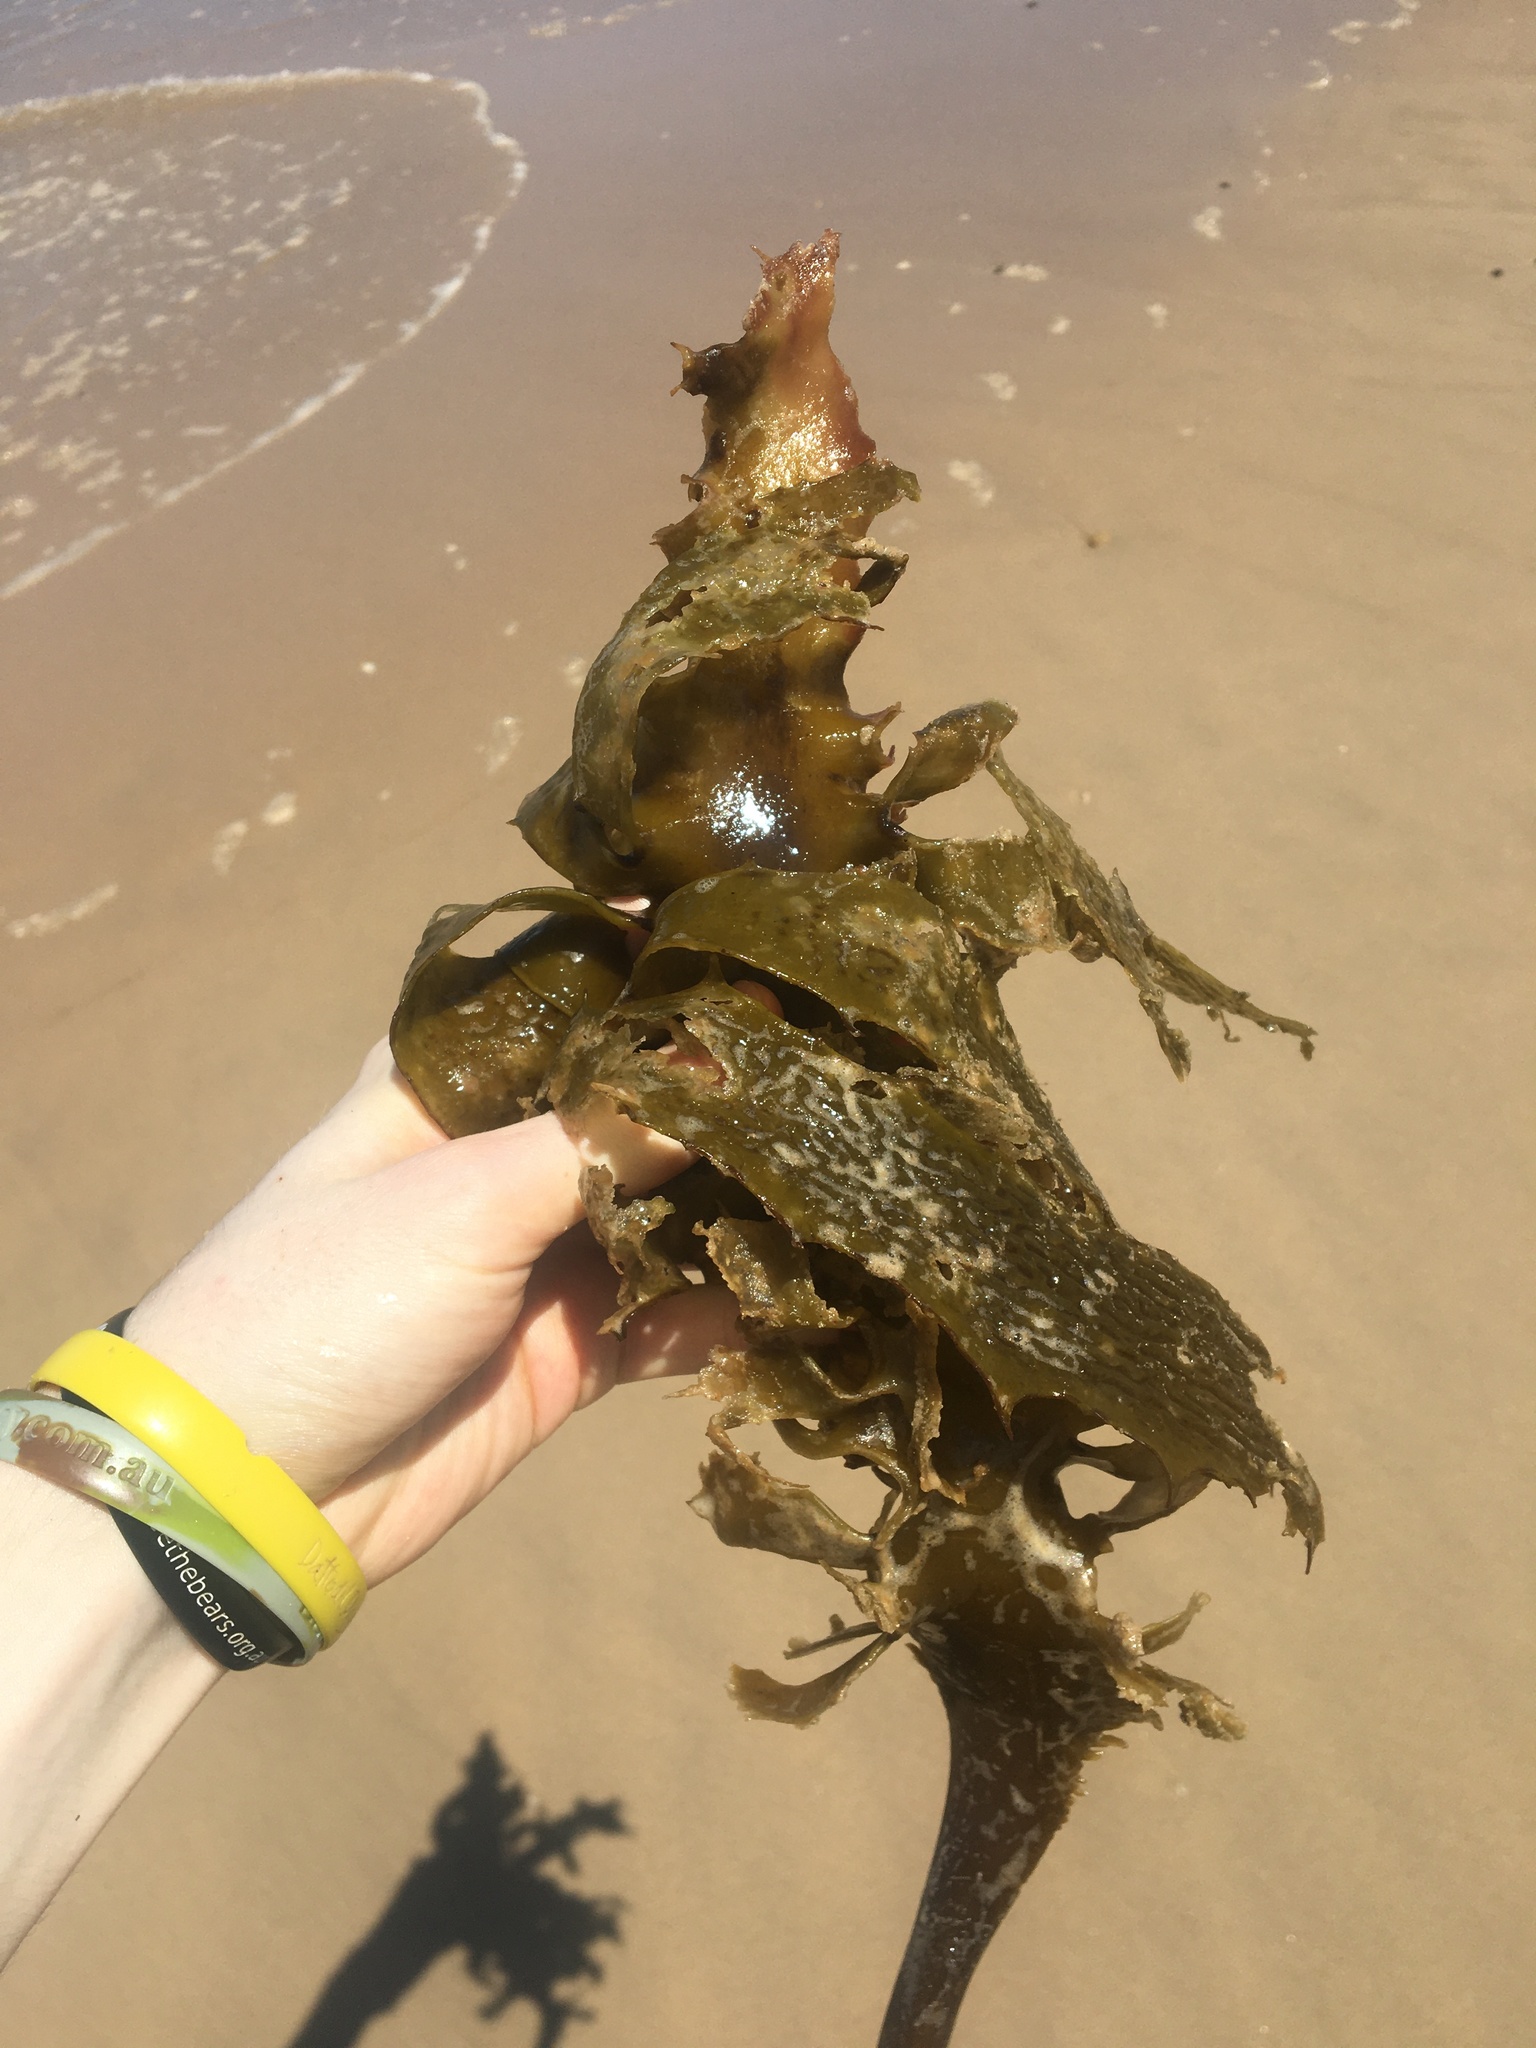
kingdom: Chromista
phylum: Ochrophyta
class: Phaeophyceae
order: Laminariales
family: Lessoniaceae
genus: Ecklonia
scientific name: Ecklonia radiata
